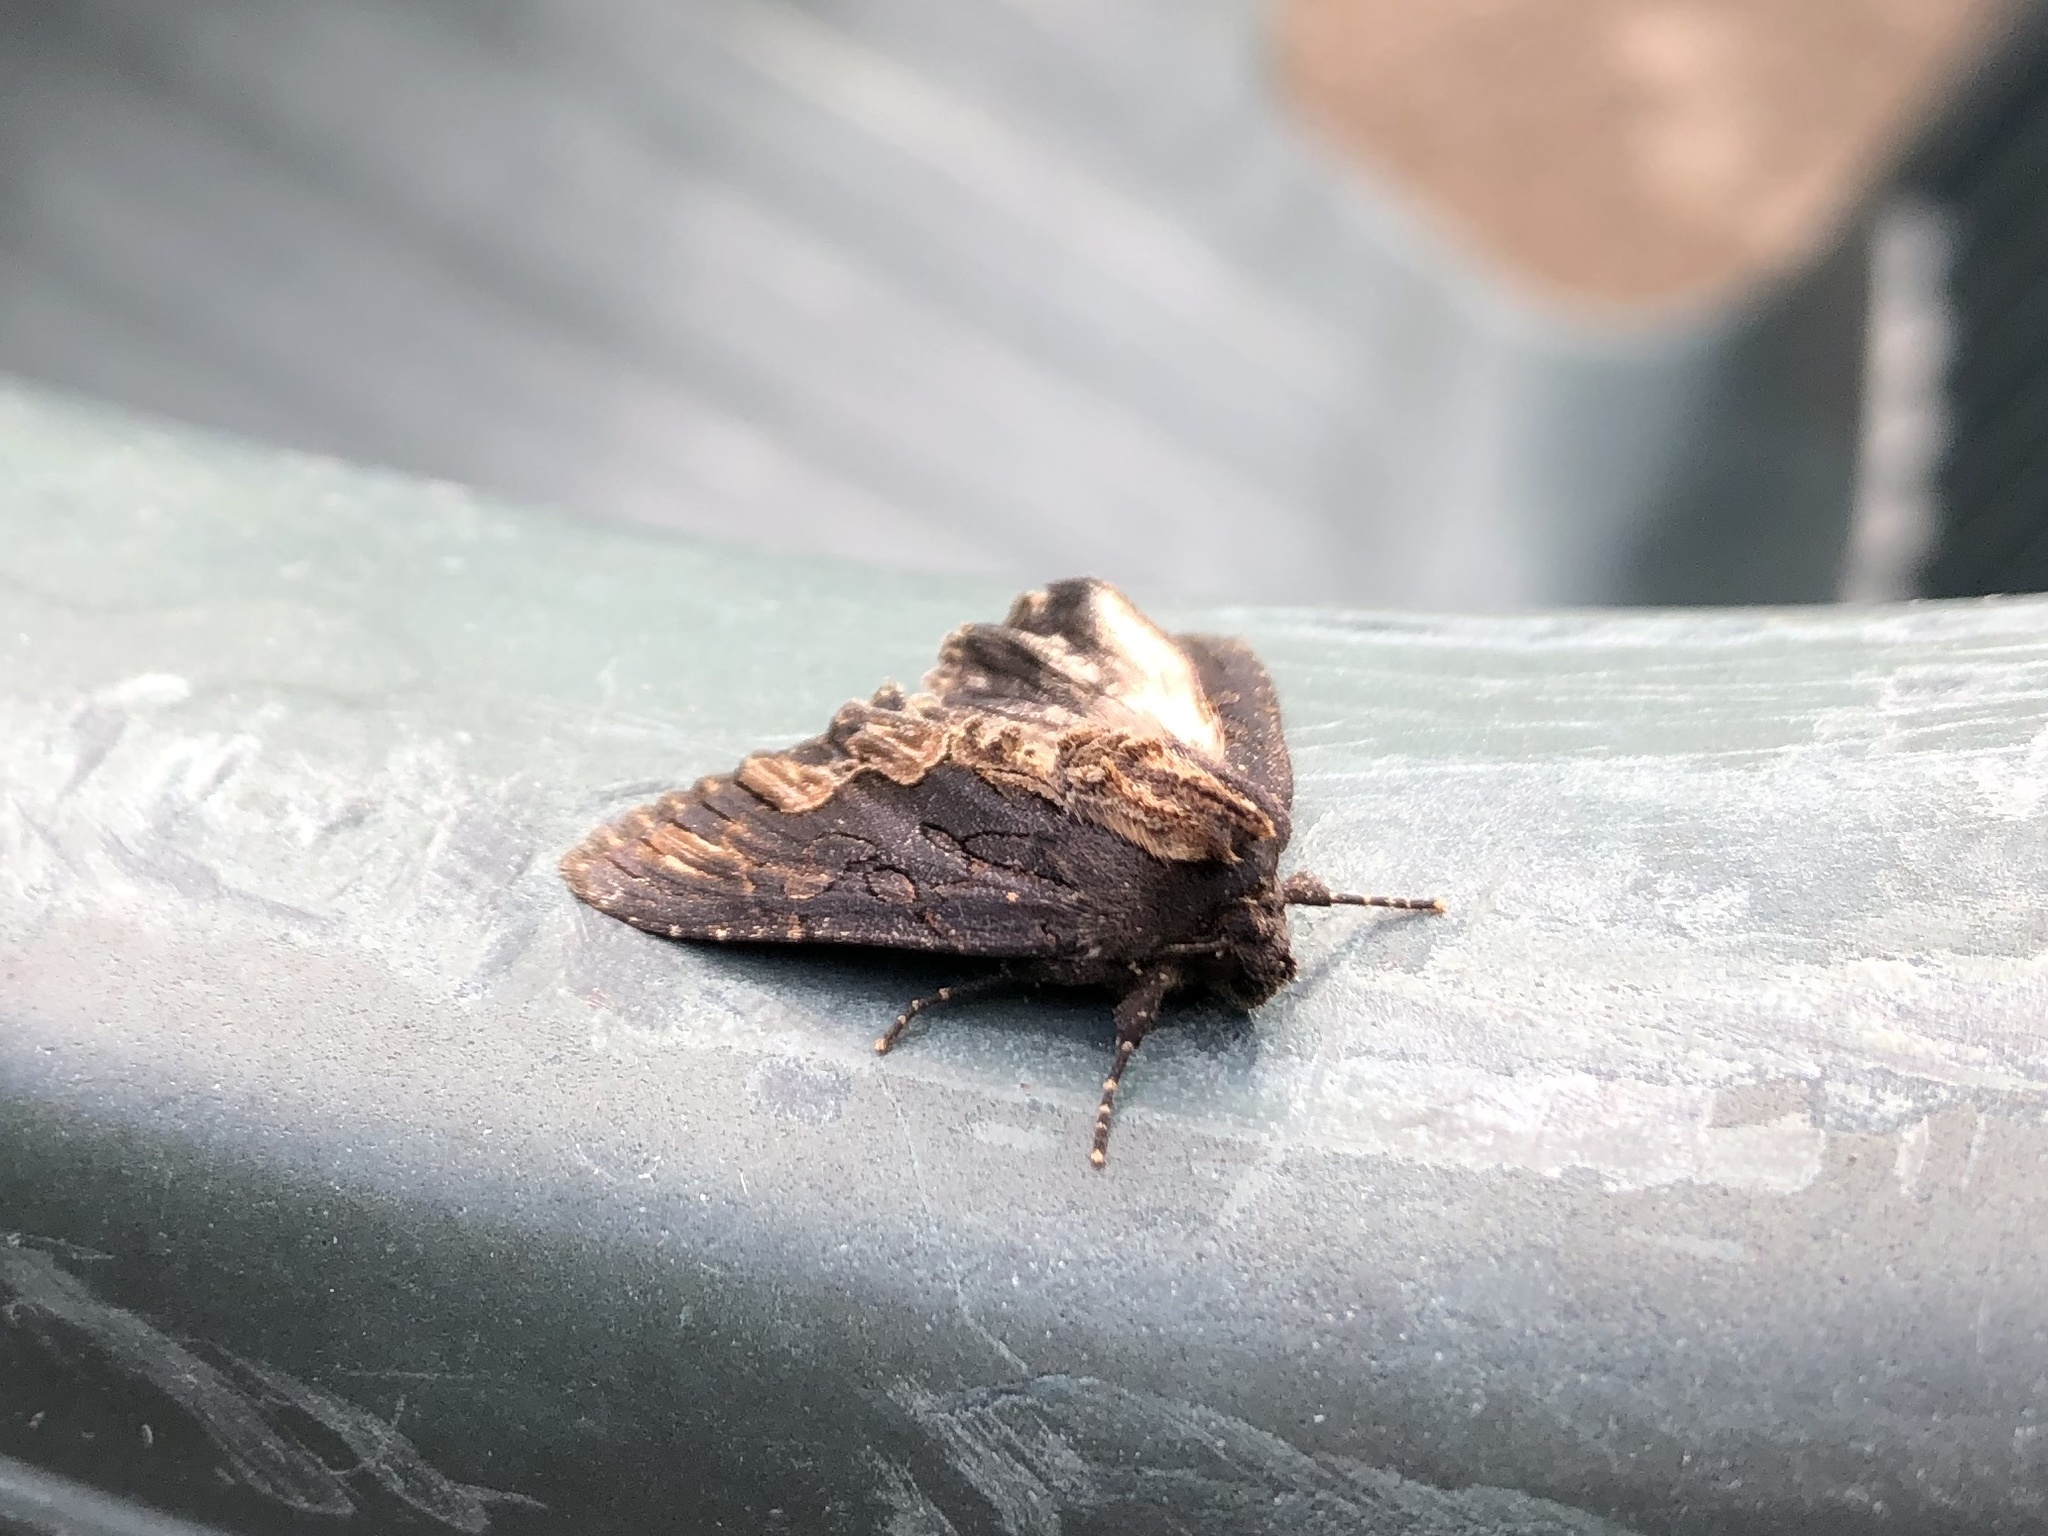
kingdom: Animalia
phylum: Arthropoda
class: Insecta
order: Lepidoptera
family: Noctuidae
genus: Dypterygia
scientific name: Dypterygia scabriuscula
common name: Bird's wing
